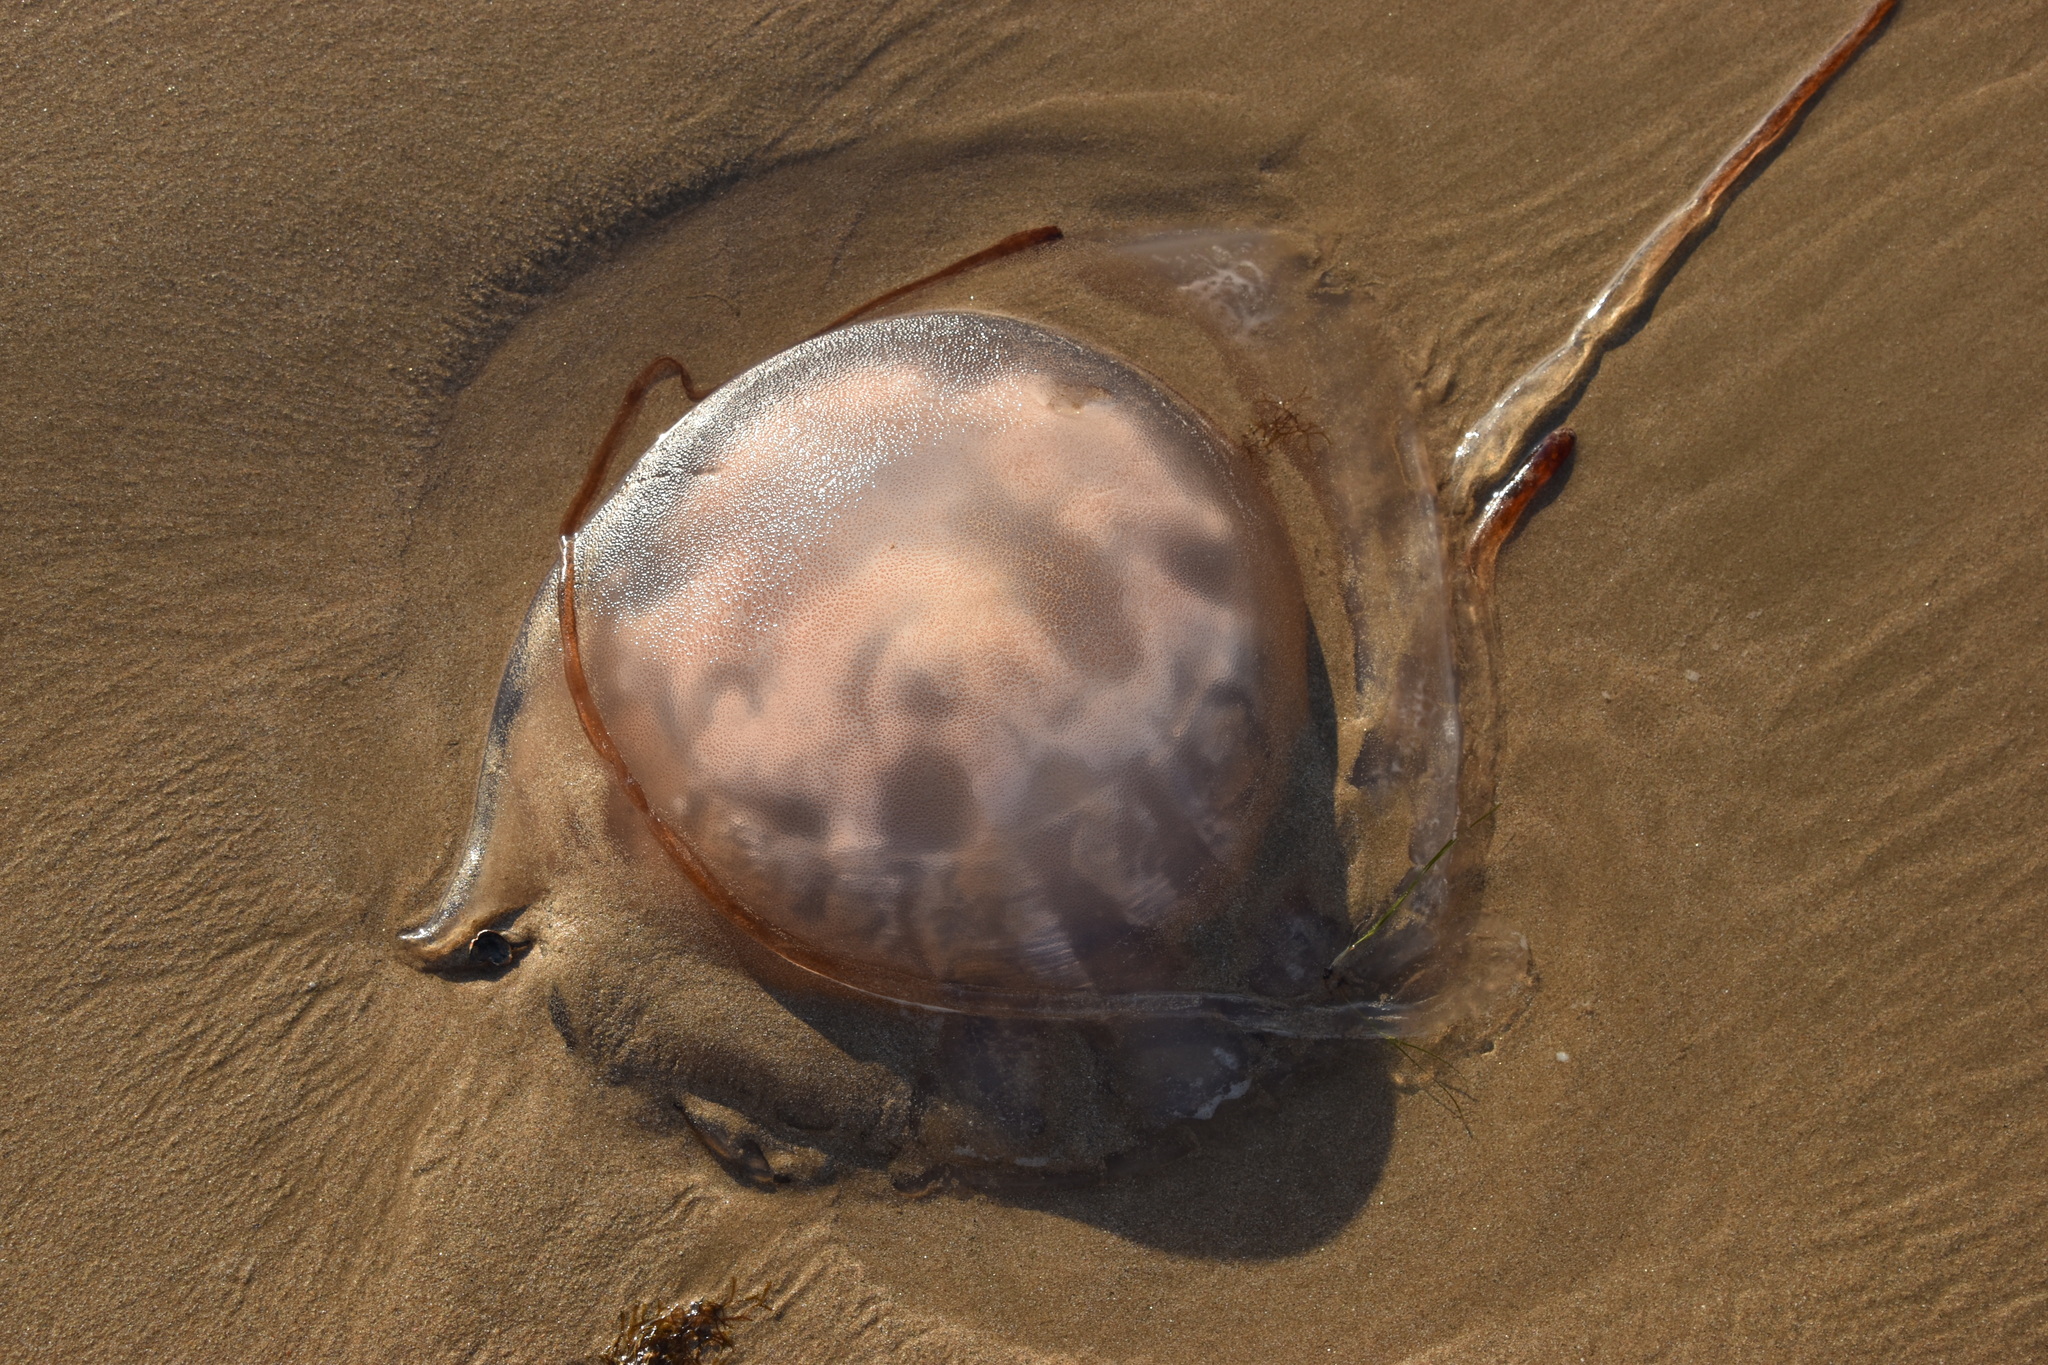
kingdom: Animalia
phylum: Cnidaria
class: Scyphozoa
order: Rhizostomeae
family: Rhizostomatidae
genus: Rhizostoma
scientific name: Rhizostoma luteum
